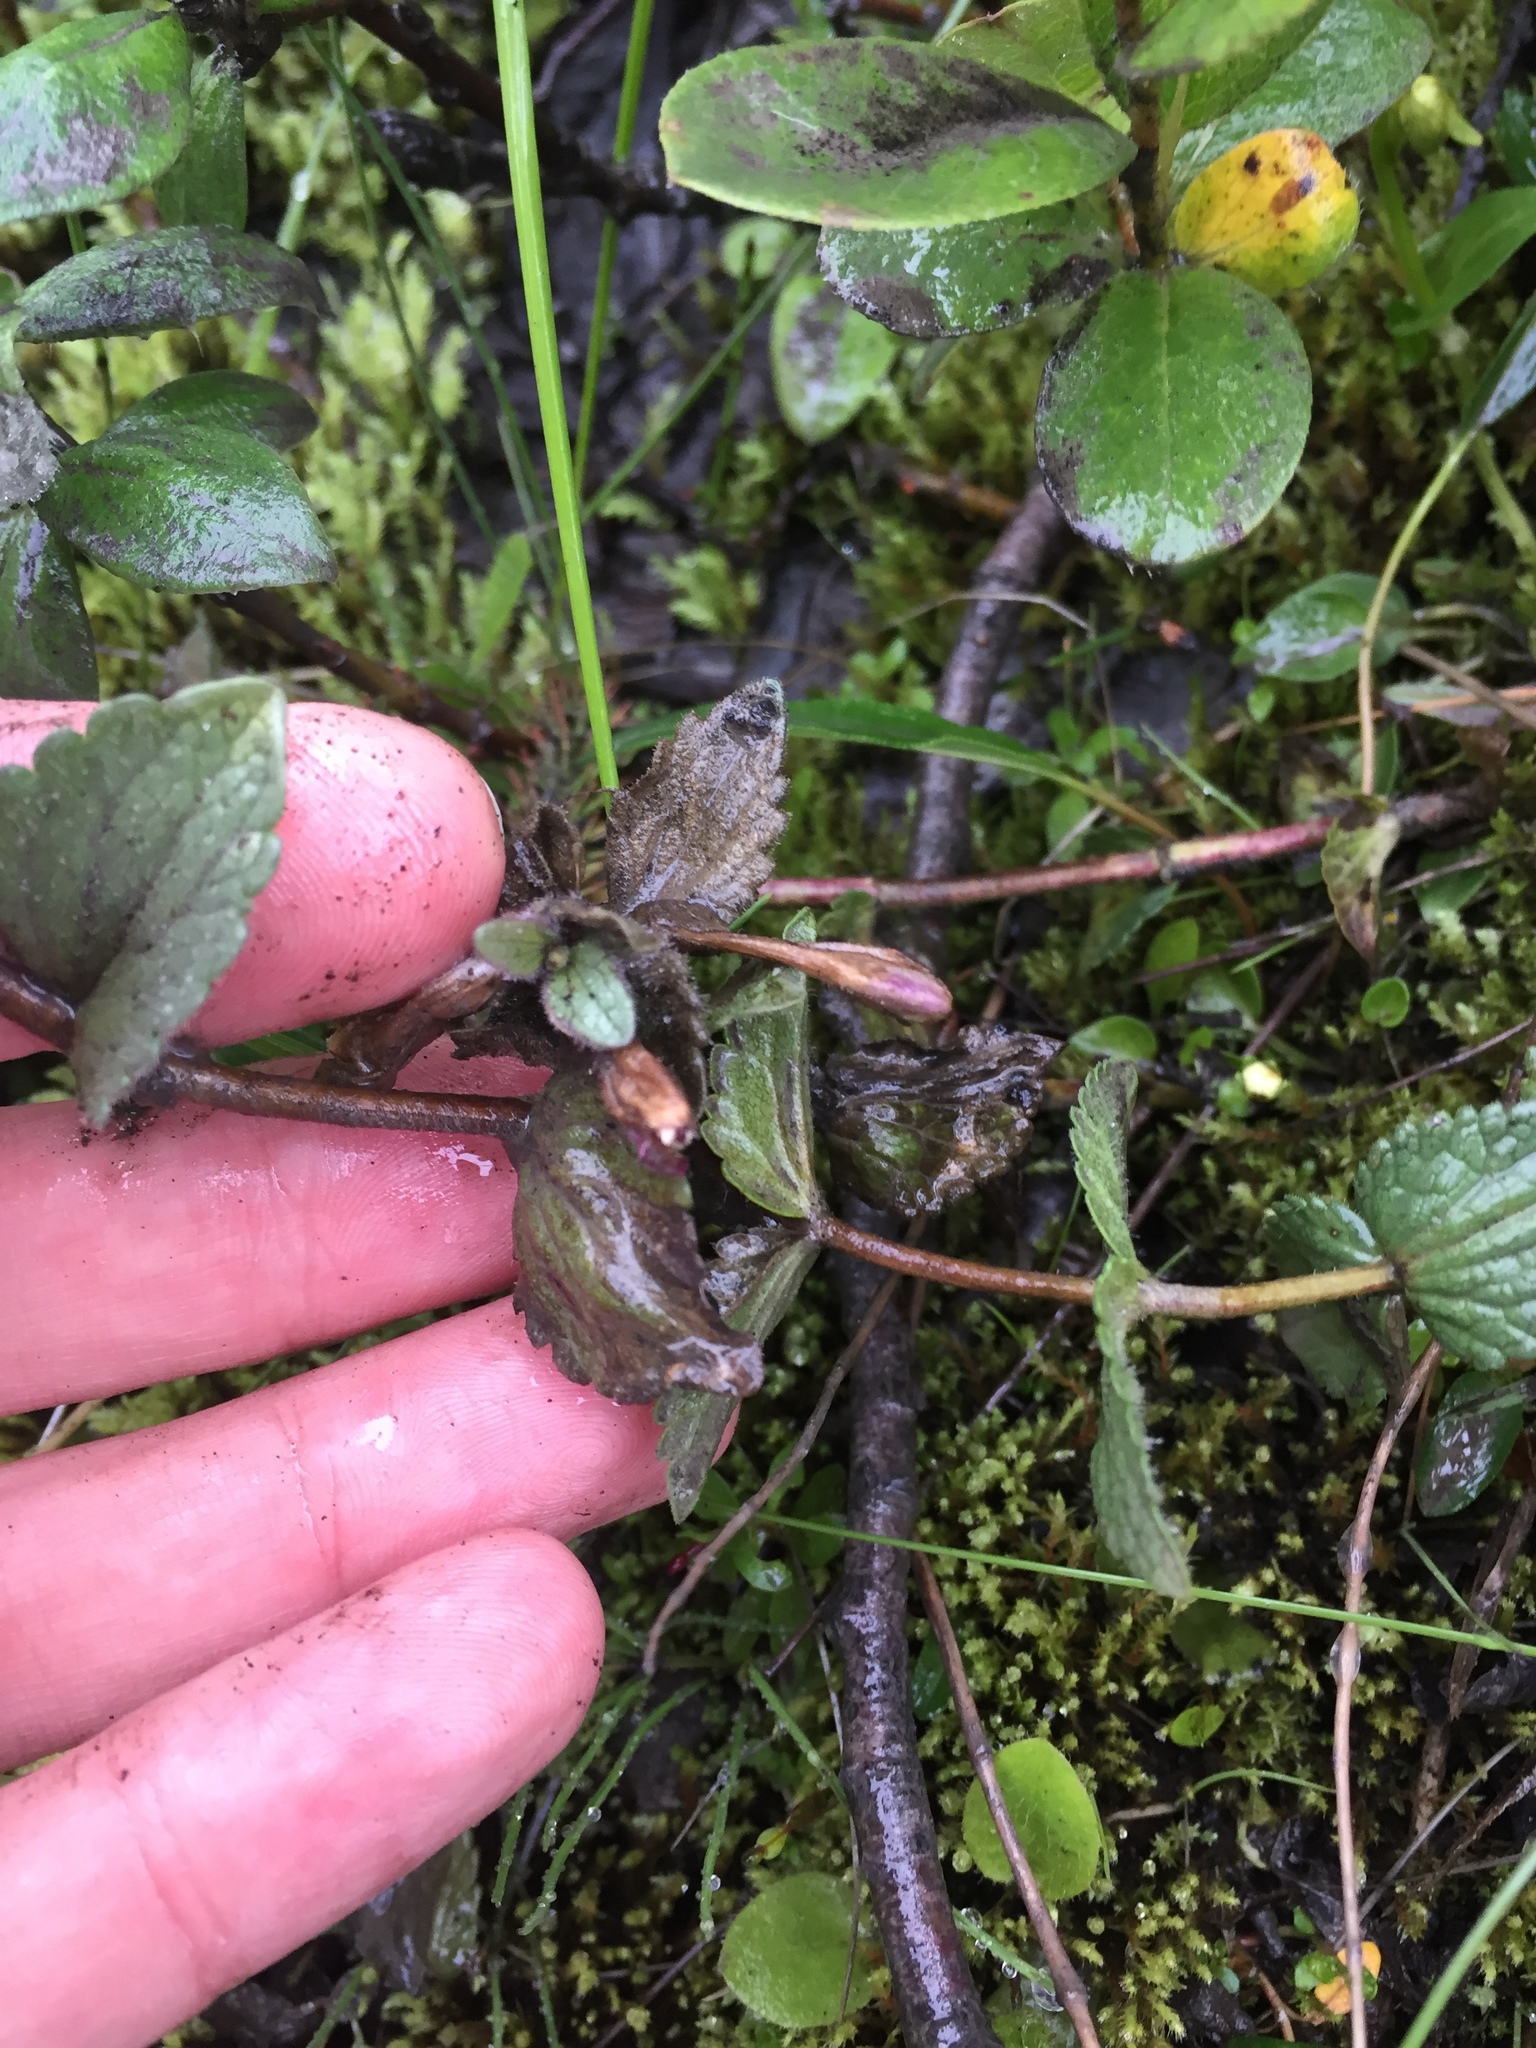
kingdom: Plantae
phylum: Tracheophyta
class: Magnoliopsida
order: Lamiales
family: Orobanchaceae
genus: Bartsia
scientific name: Bartsia alpina
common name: Alpine bartsia
